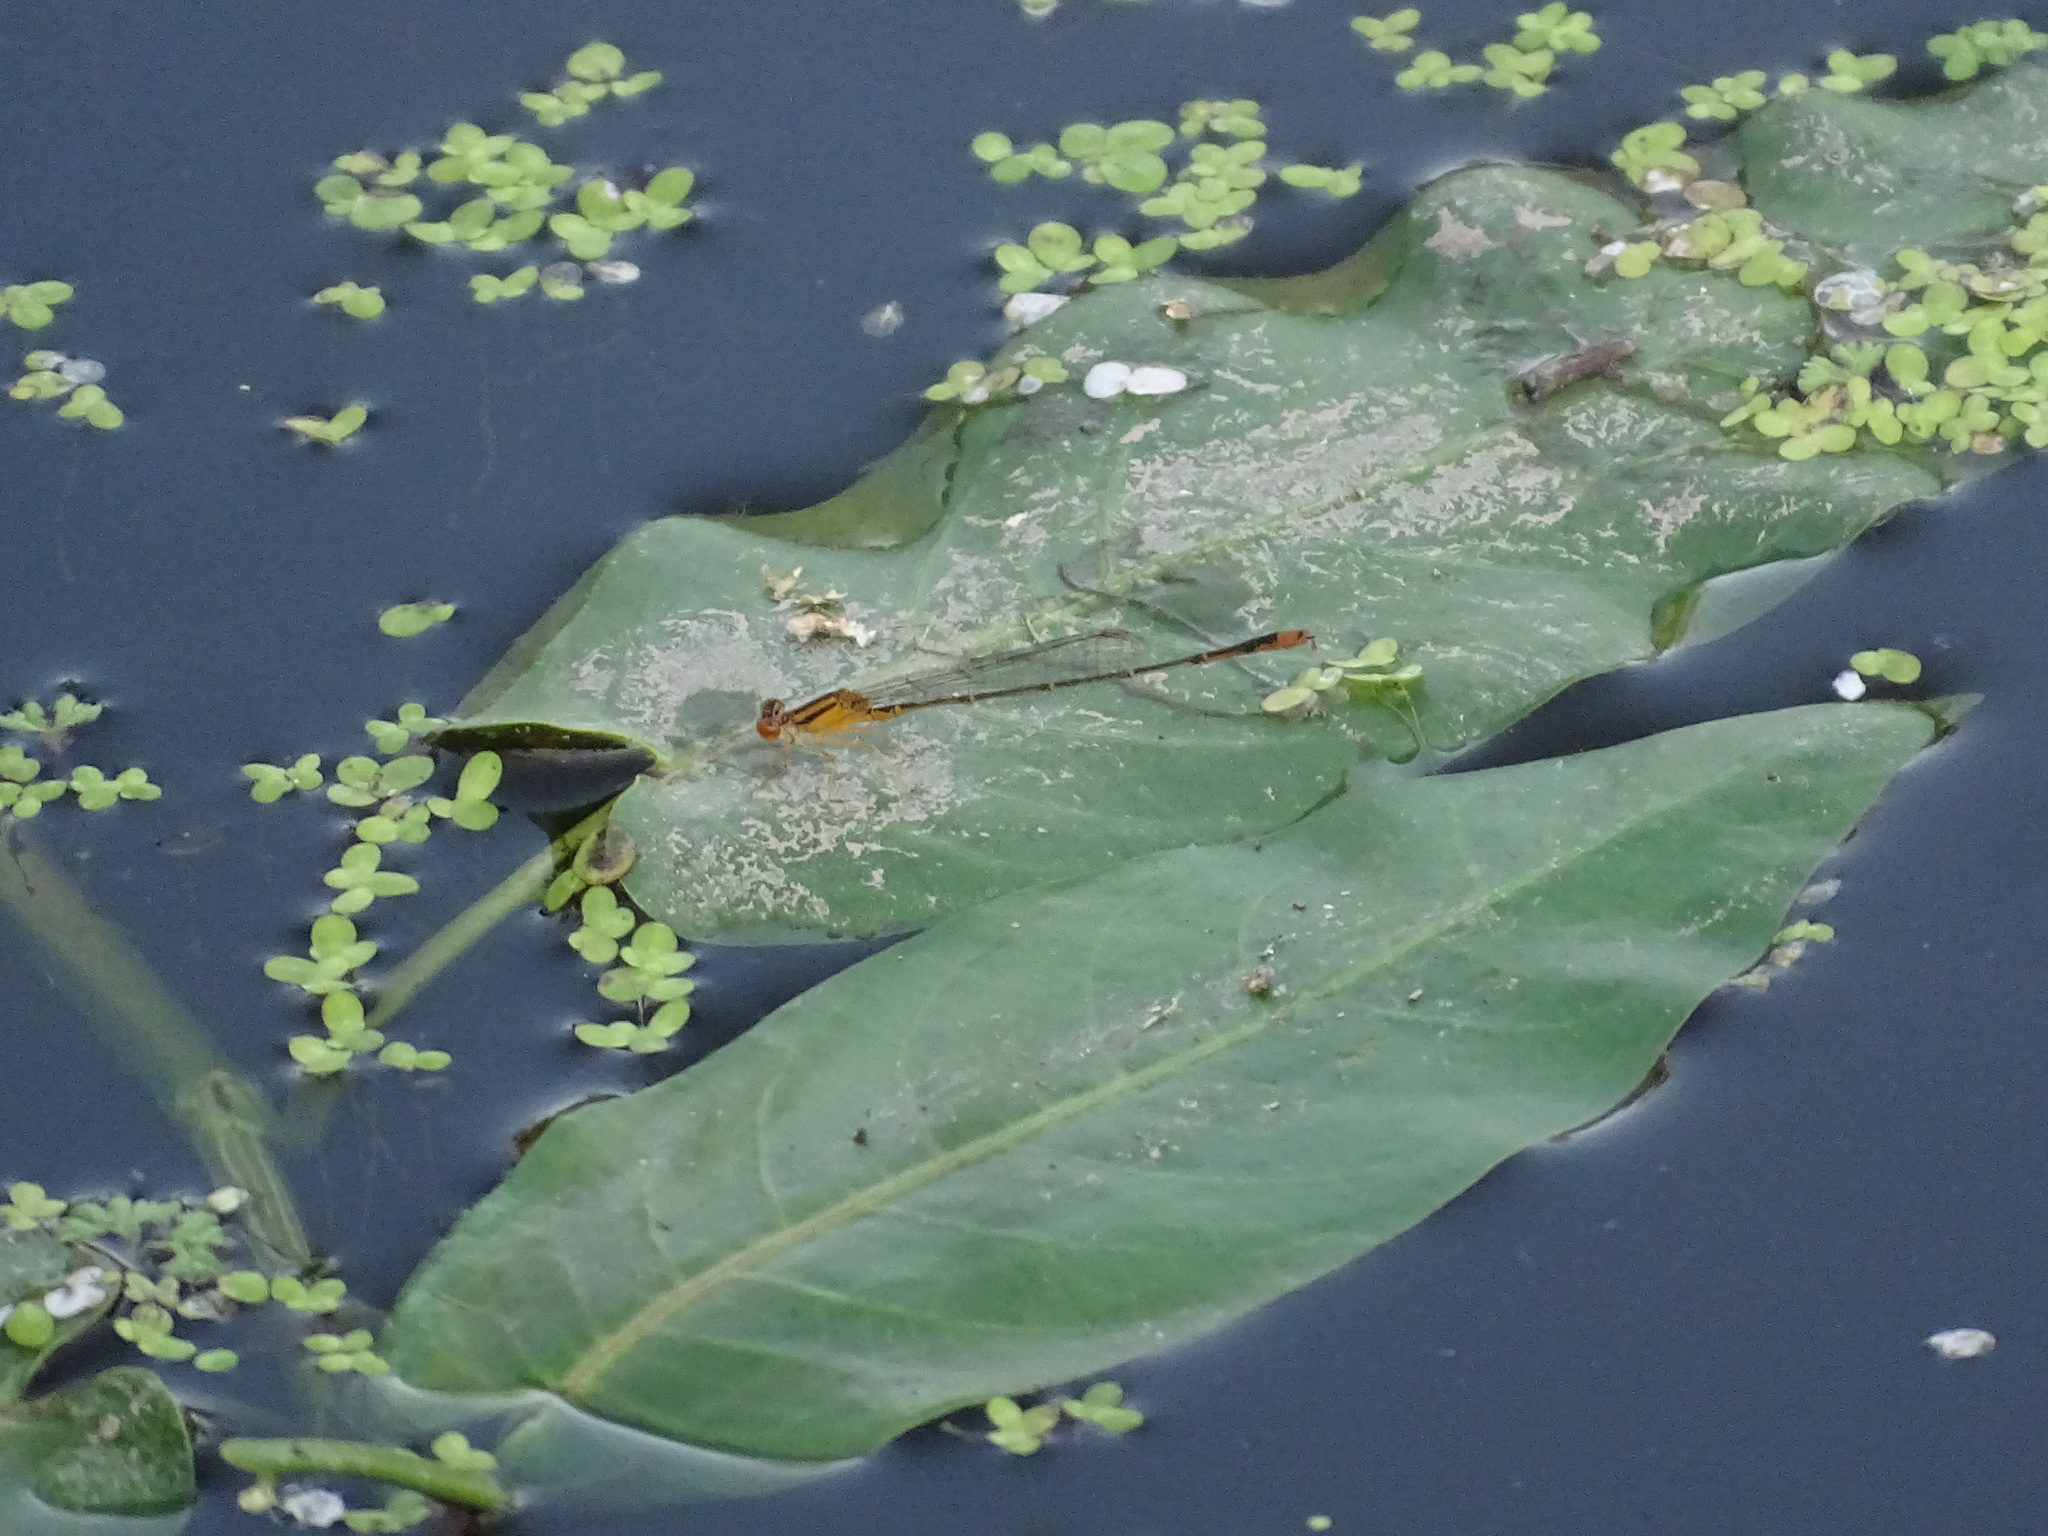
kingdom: Animalia
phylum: Arthropoda
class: Insecta
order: Odonata
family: Coenagrionidae
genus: Enallagma
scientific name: Enallagma signatum
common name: Orange bluet
